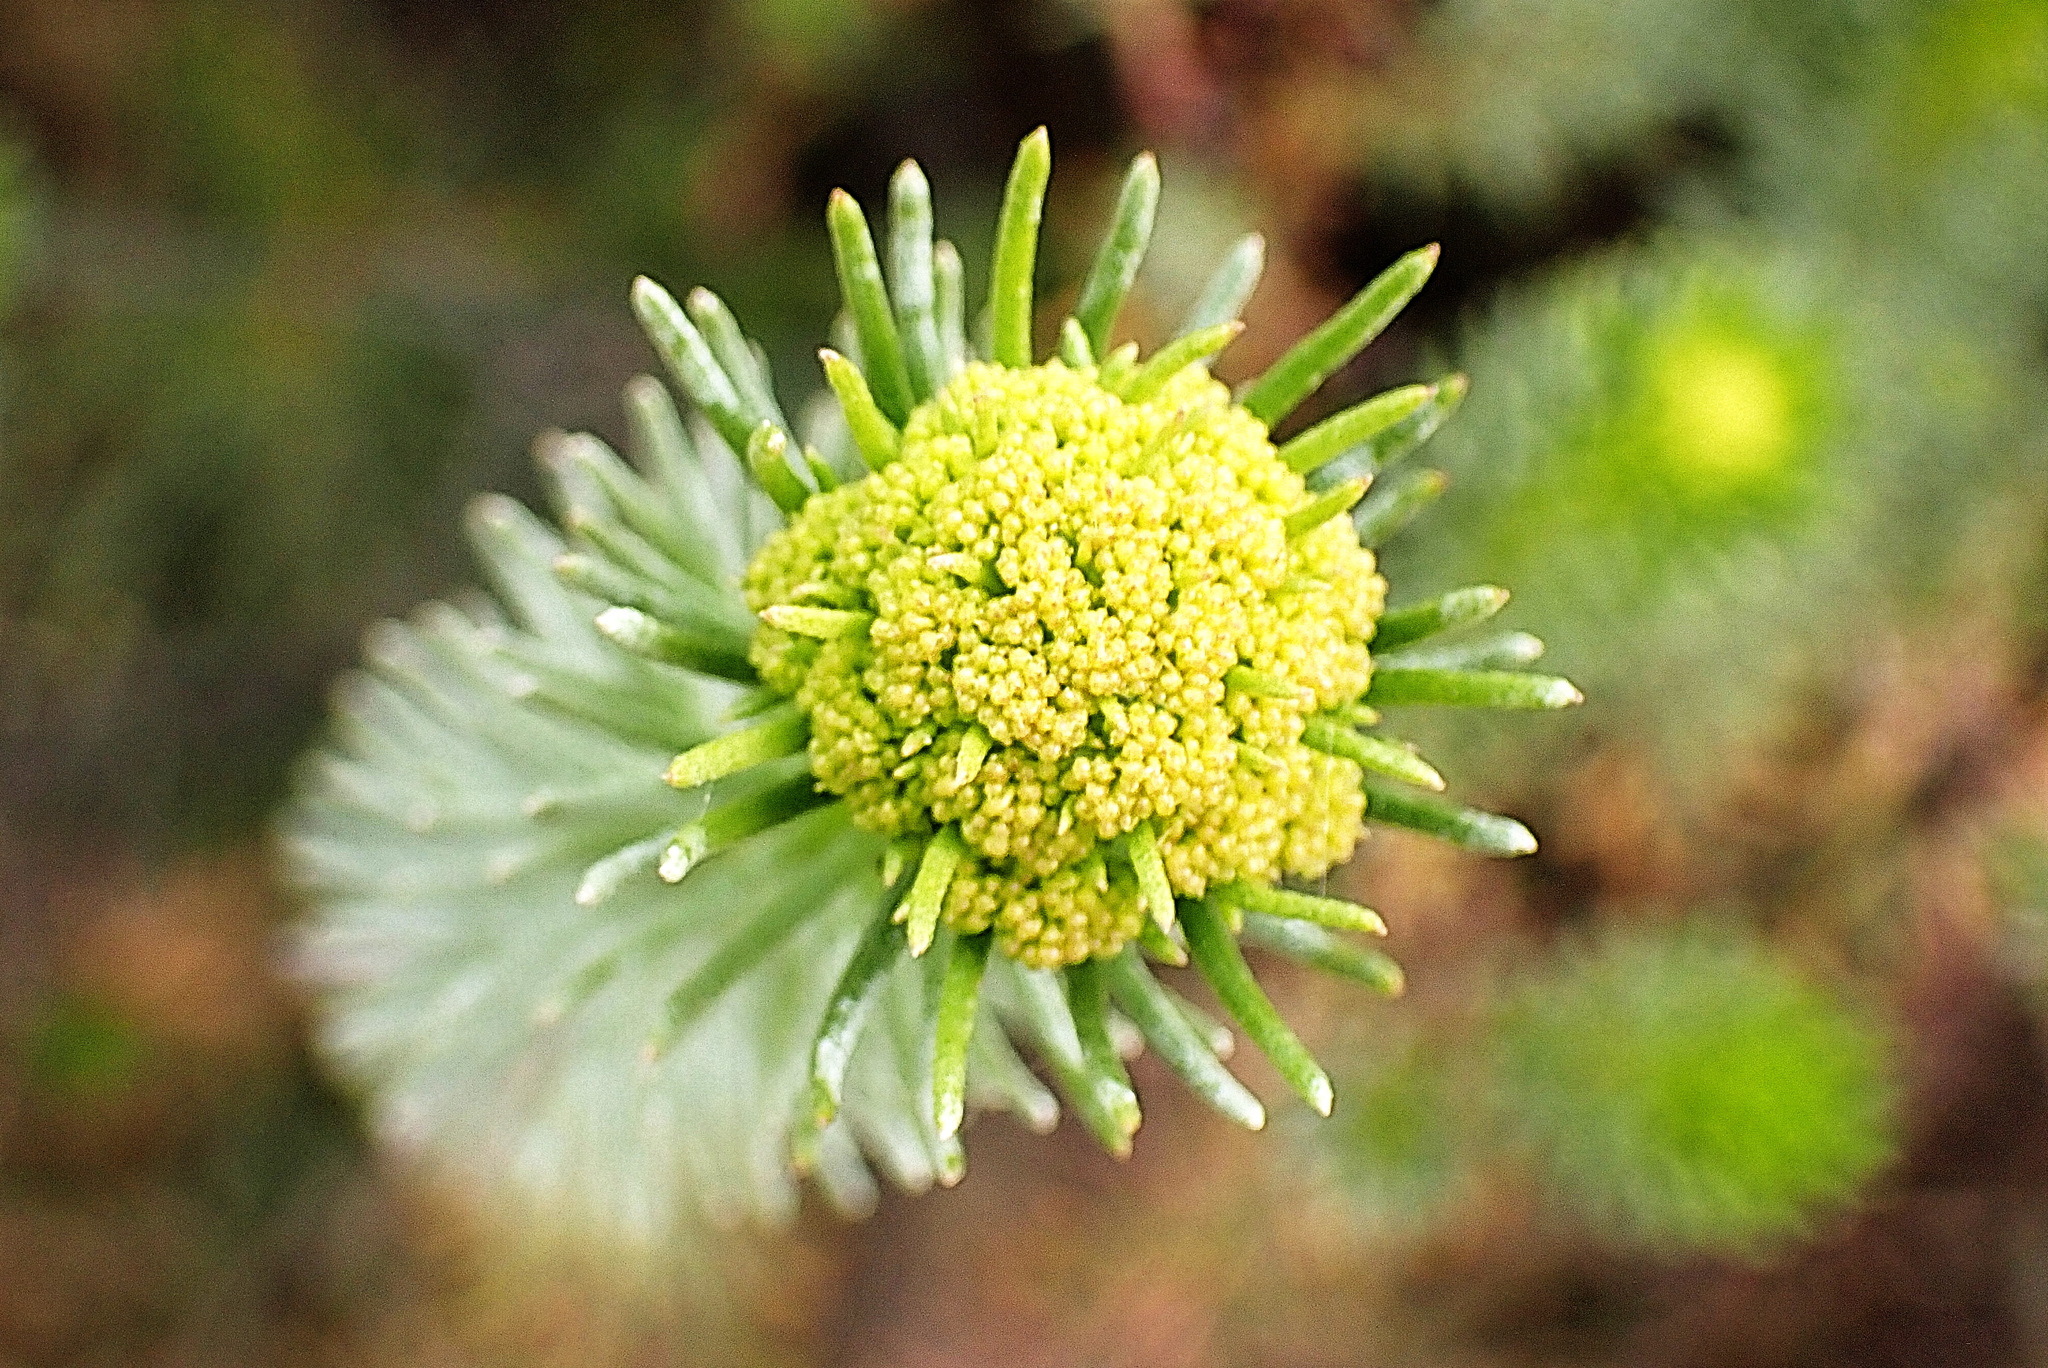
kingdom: Plantae
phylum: Tracheophyta
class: Magnoliopsida
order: Asterales
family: Asteraceae
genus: Athanasia
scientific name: Athanasia tomentosa
